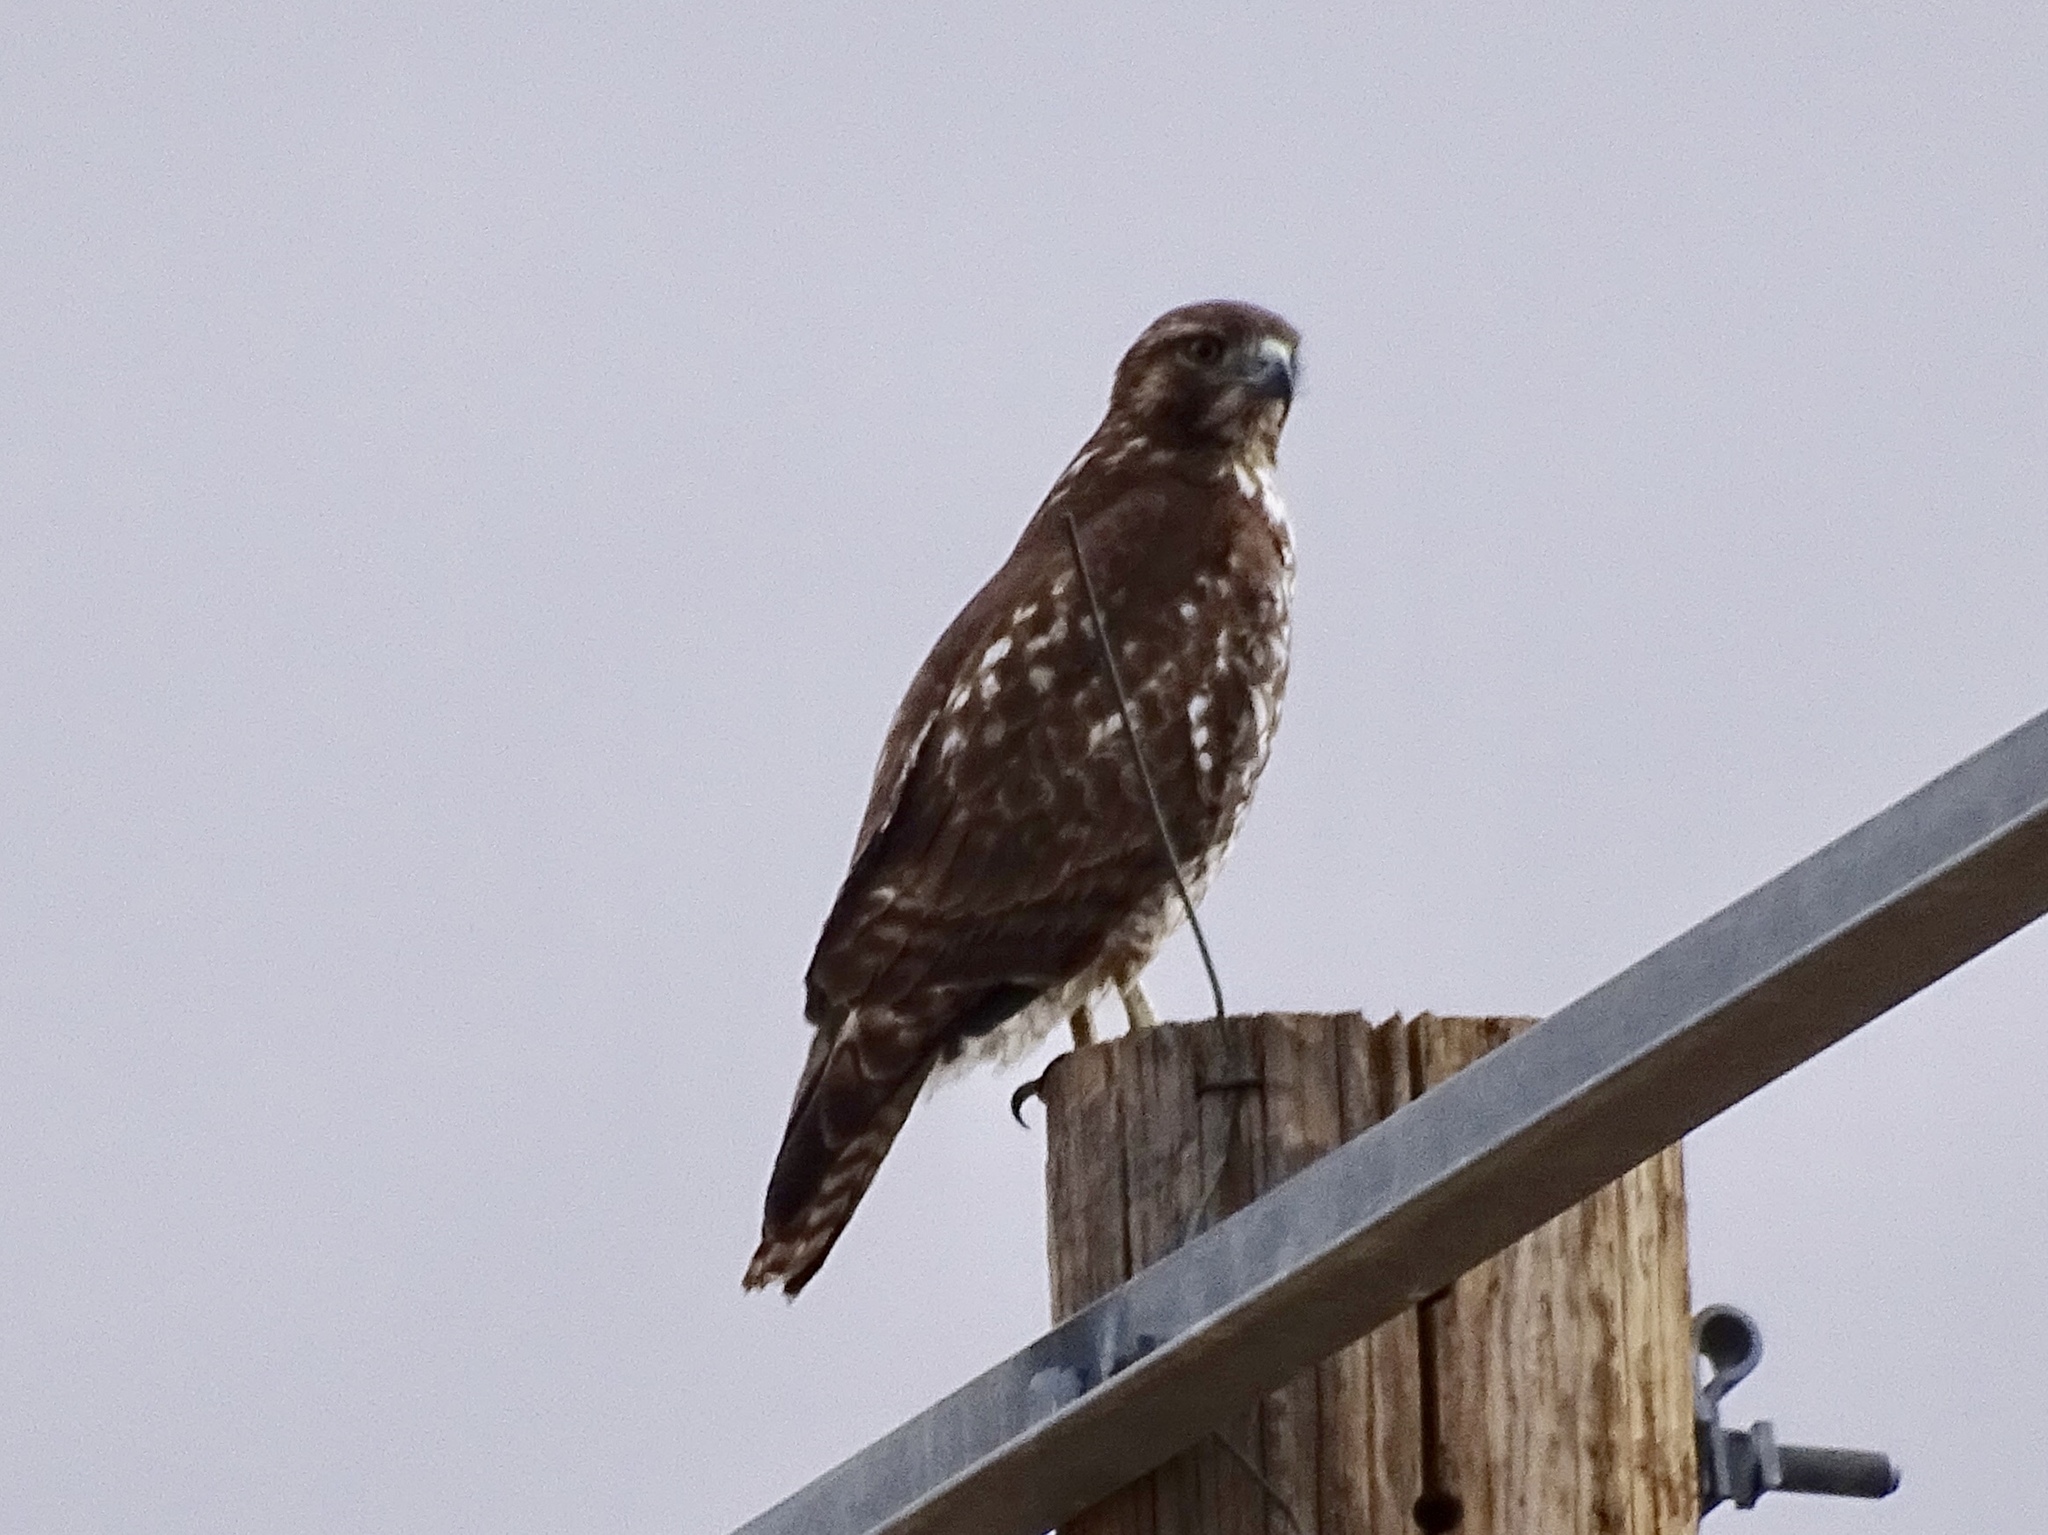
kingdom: Animalia
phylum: Chordata
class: Aves
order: Accipitriformes
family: Accipitridae
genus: Buteo
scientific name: Buteo jamaicensis
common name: Red-tailed hawk
